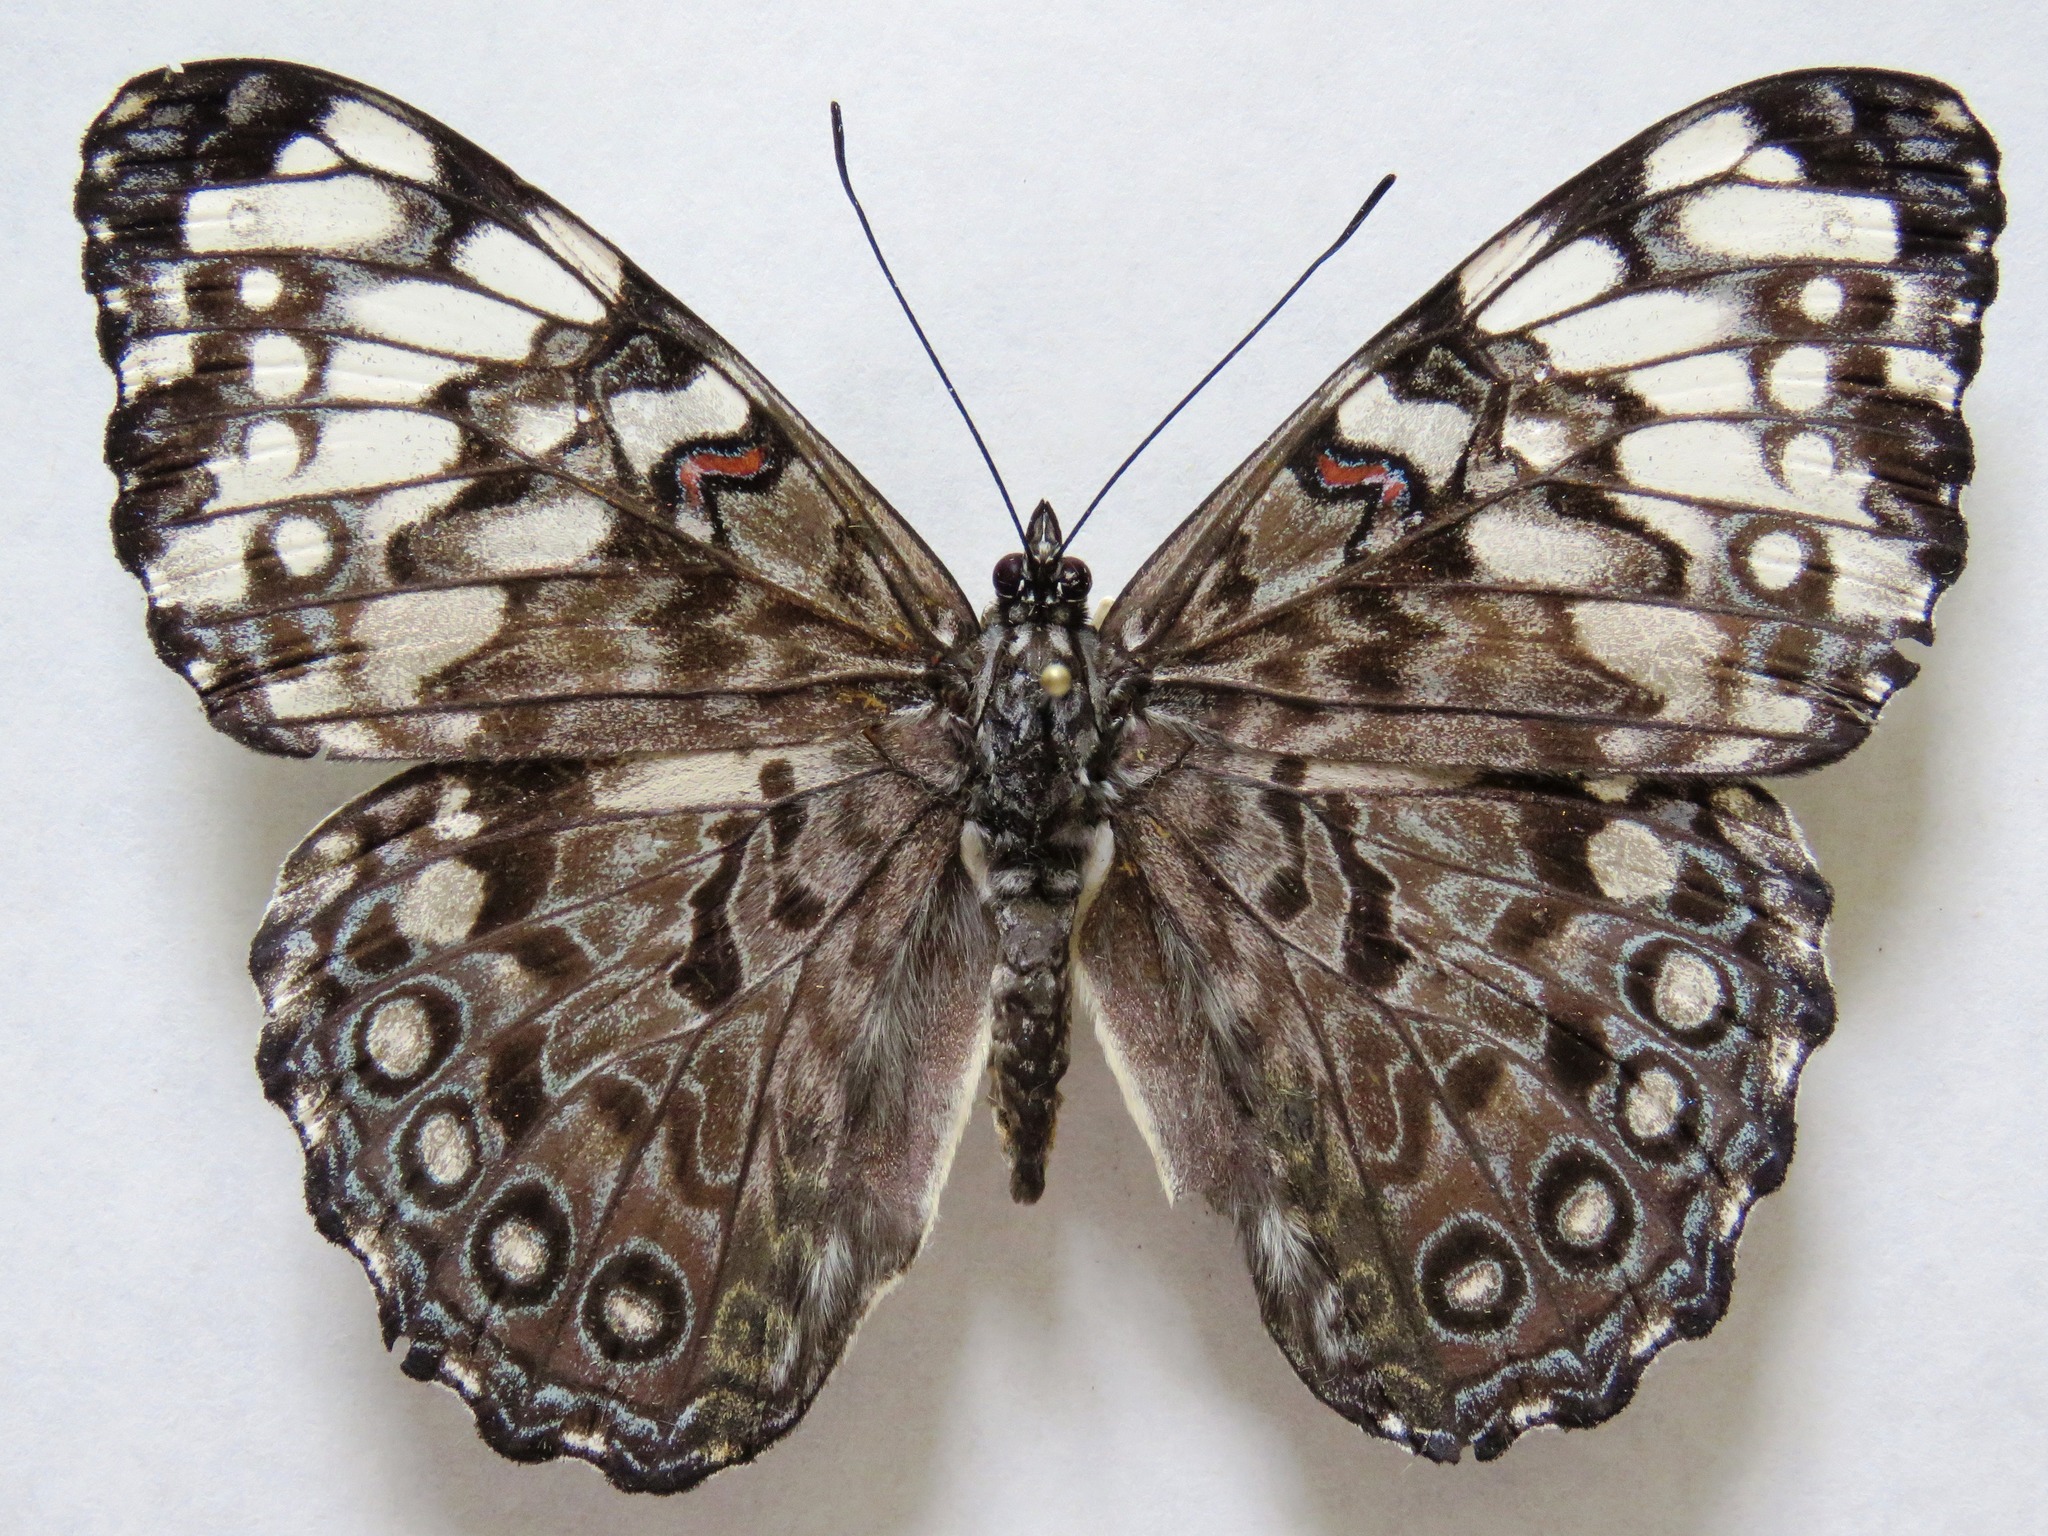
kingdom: Animalia
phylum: Arthropoda
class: Insecta
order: Lepidoptera
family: Nymphalidae
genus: Hamadryas
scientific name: Hamadryas guatemalena
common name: Guatemalan cracker
